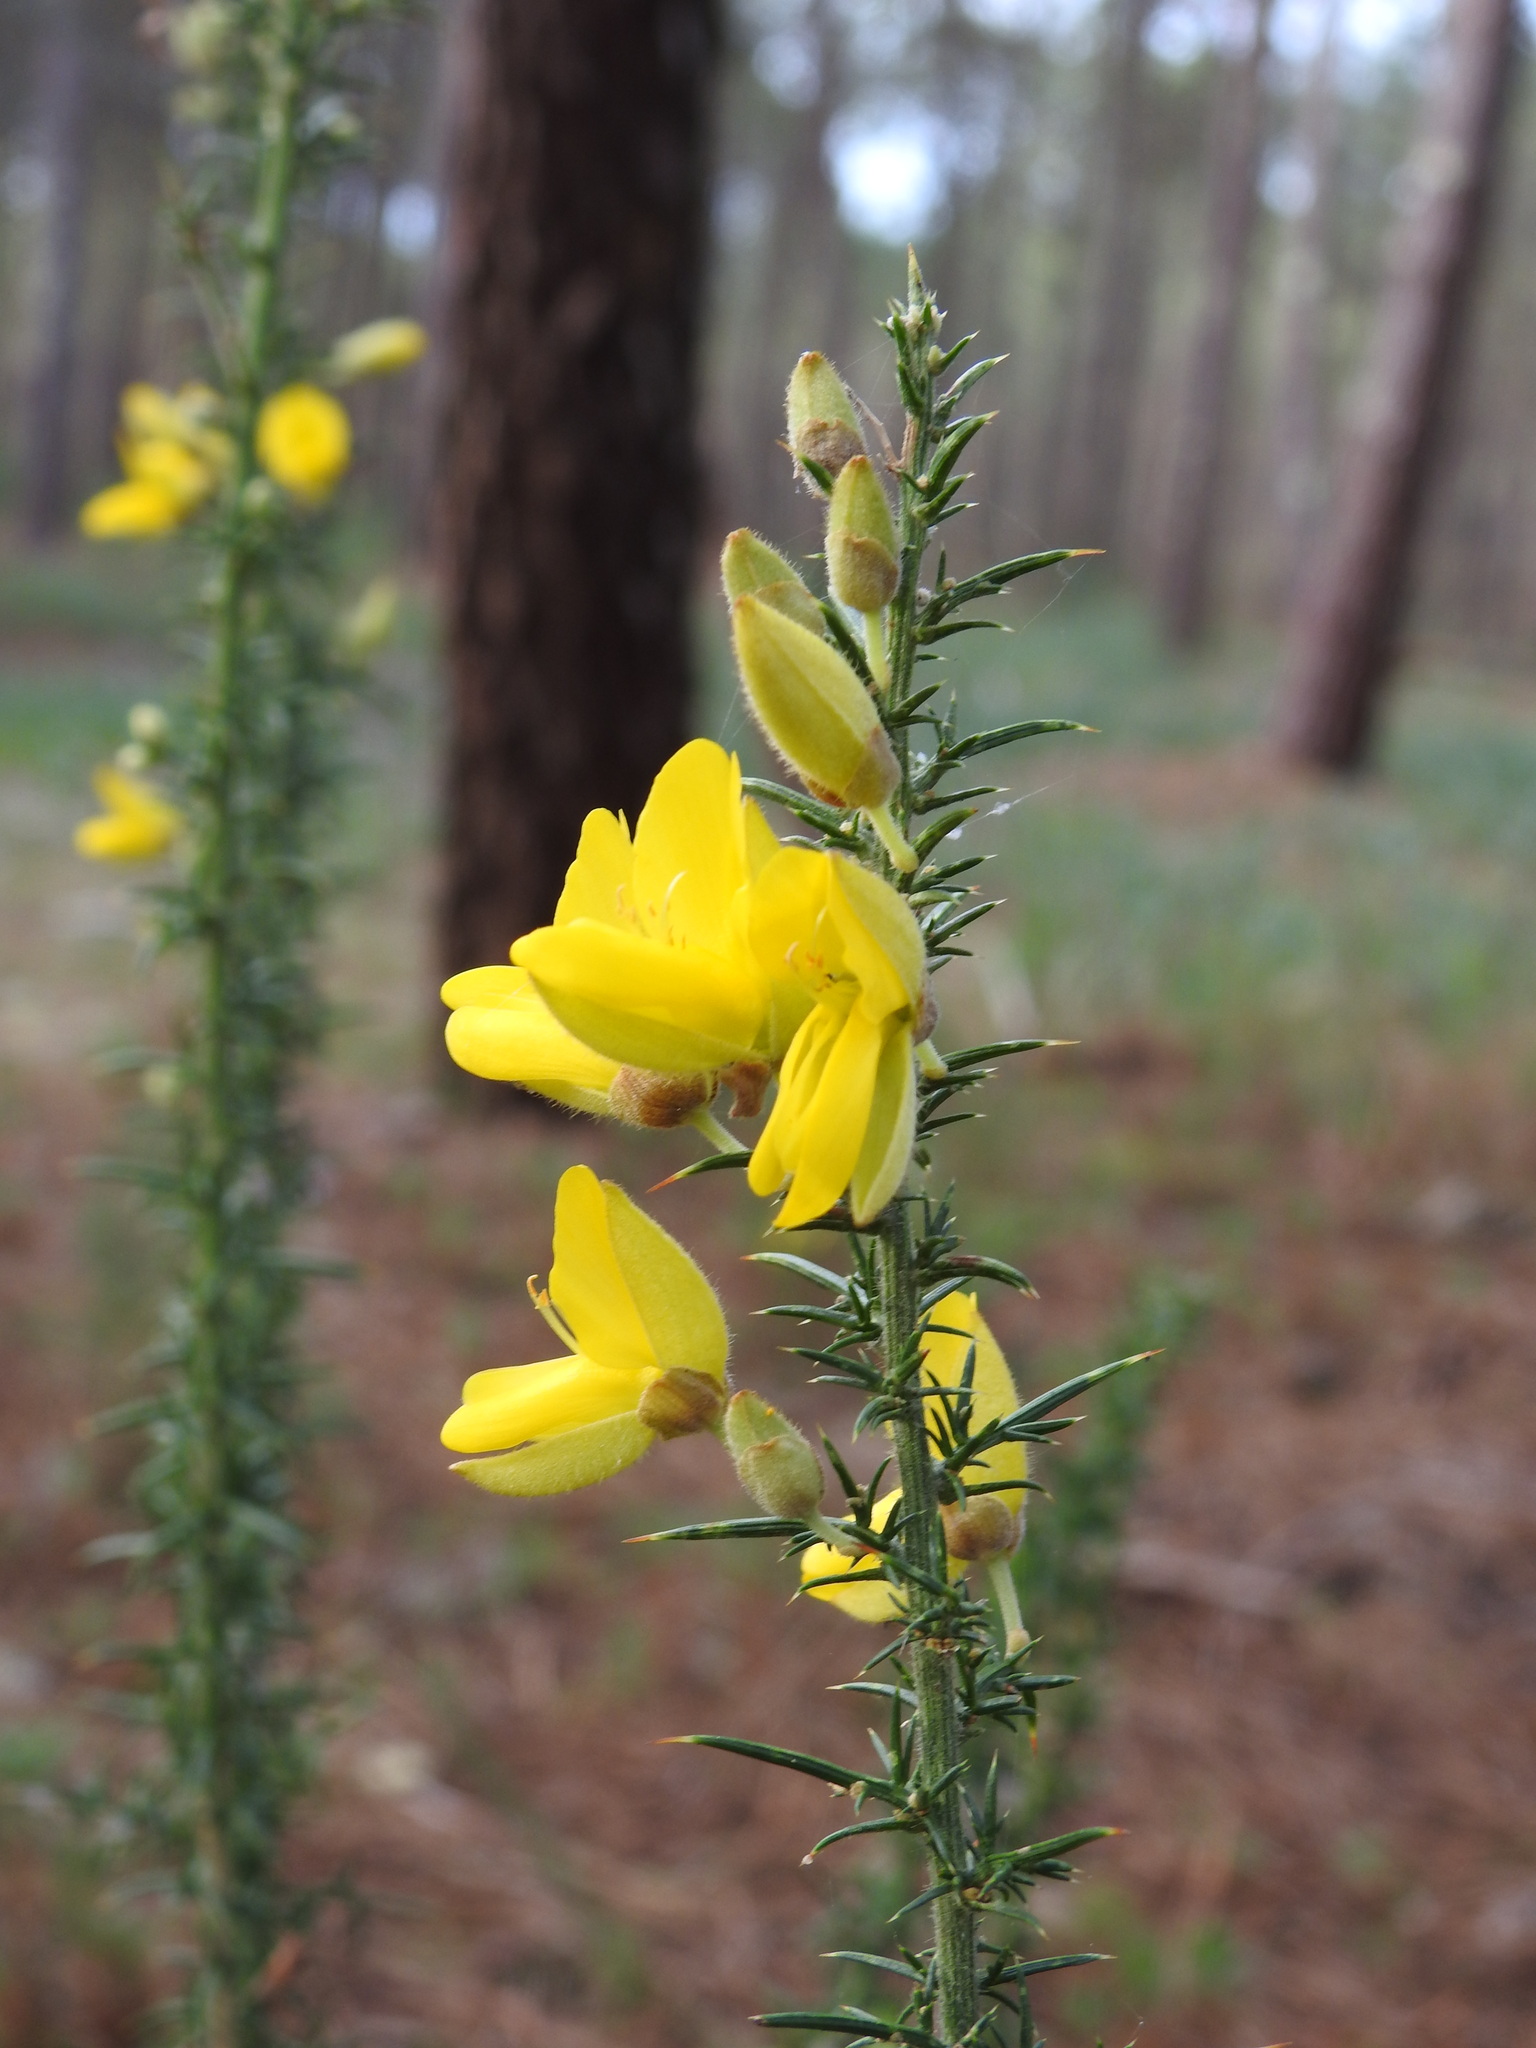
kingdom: Plantae
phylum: Tracheophyta
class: Magnoliopsida
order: Fabales
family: Fabaceae
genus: Ulex
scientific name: Ulex europaeus
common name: Common gorse
